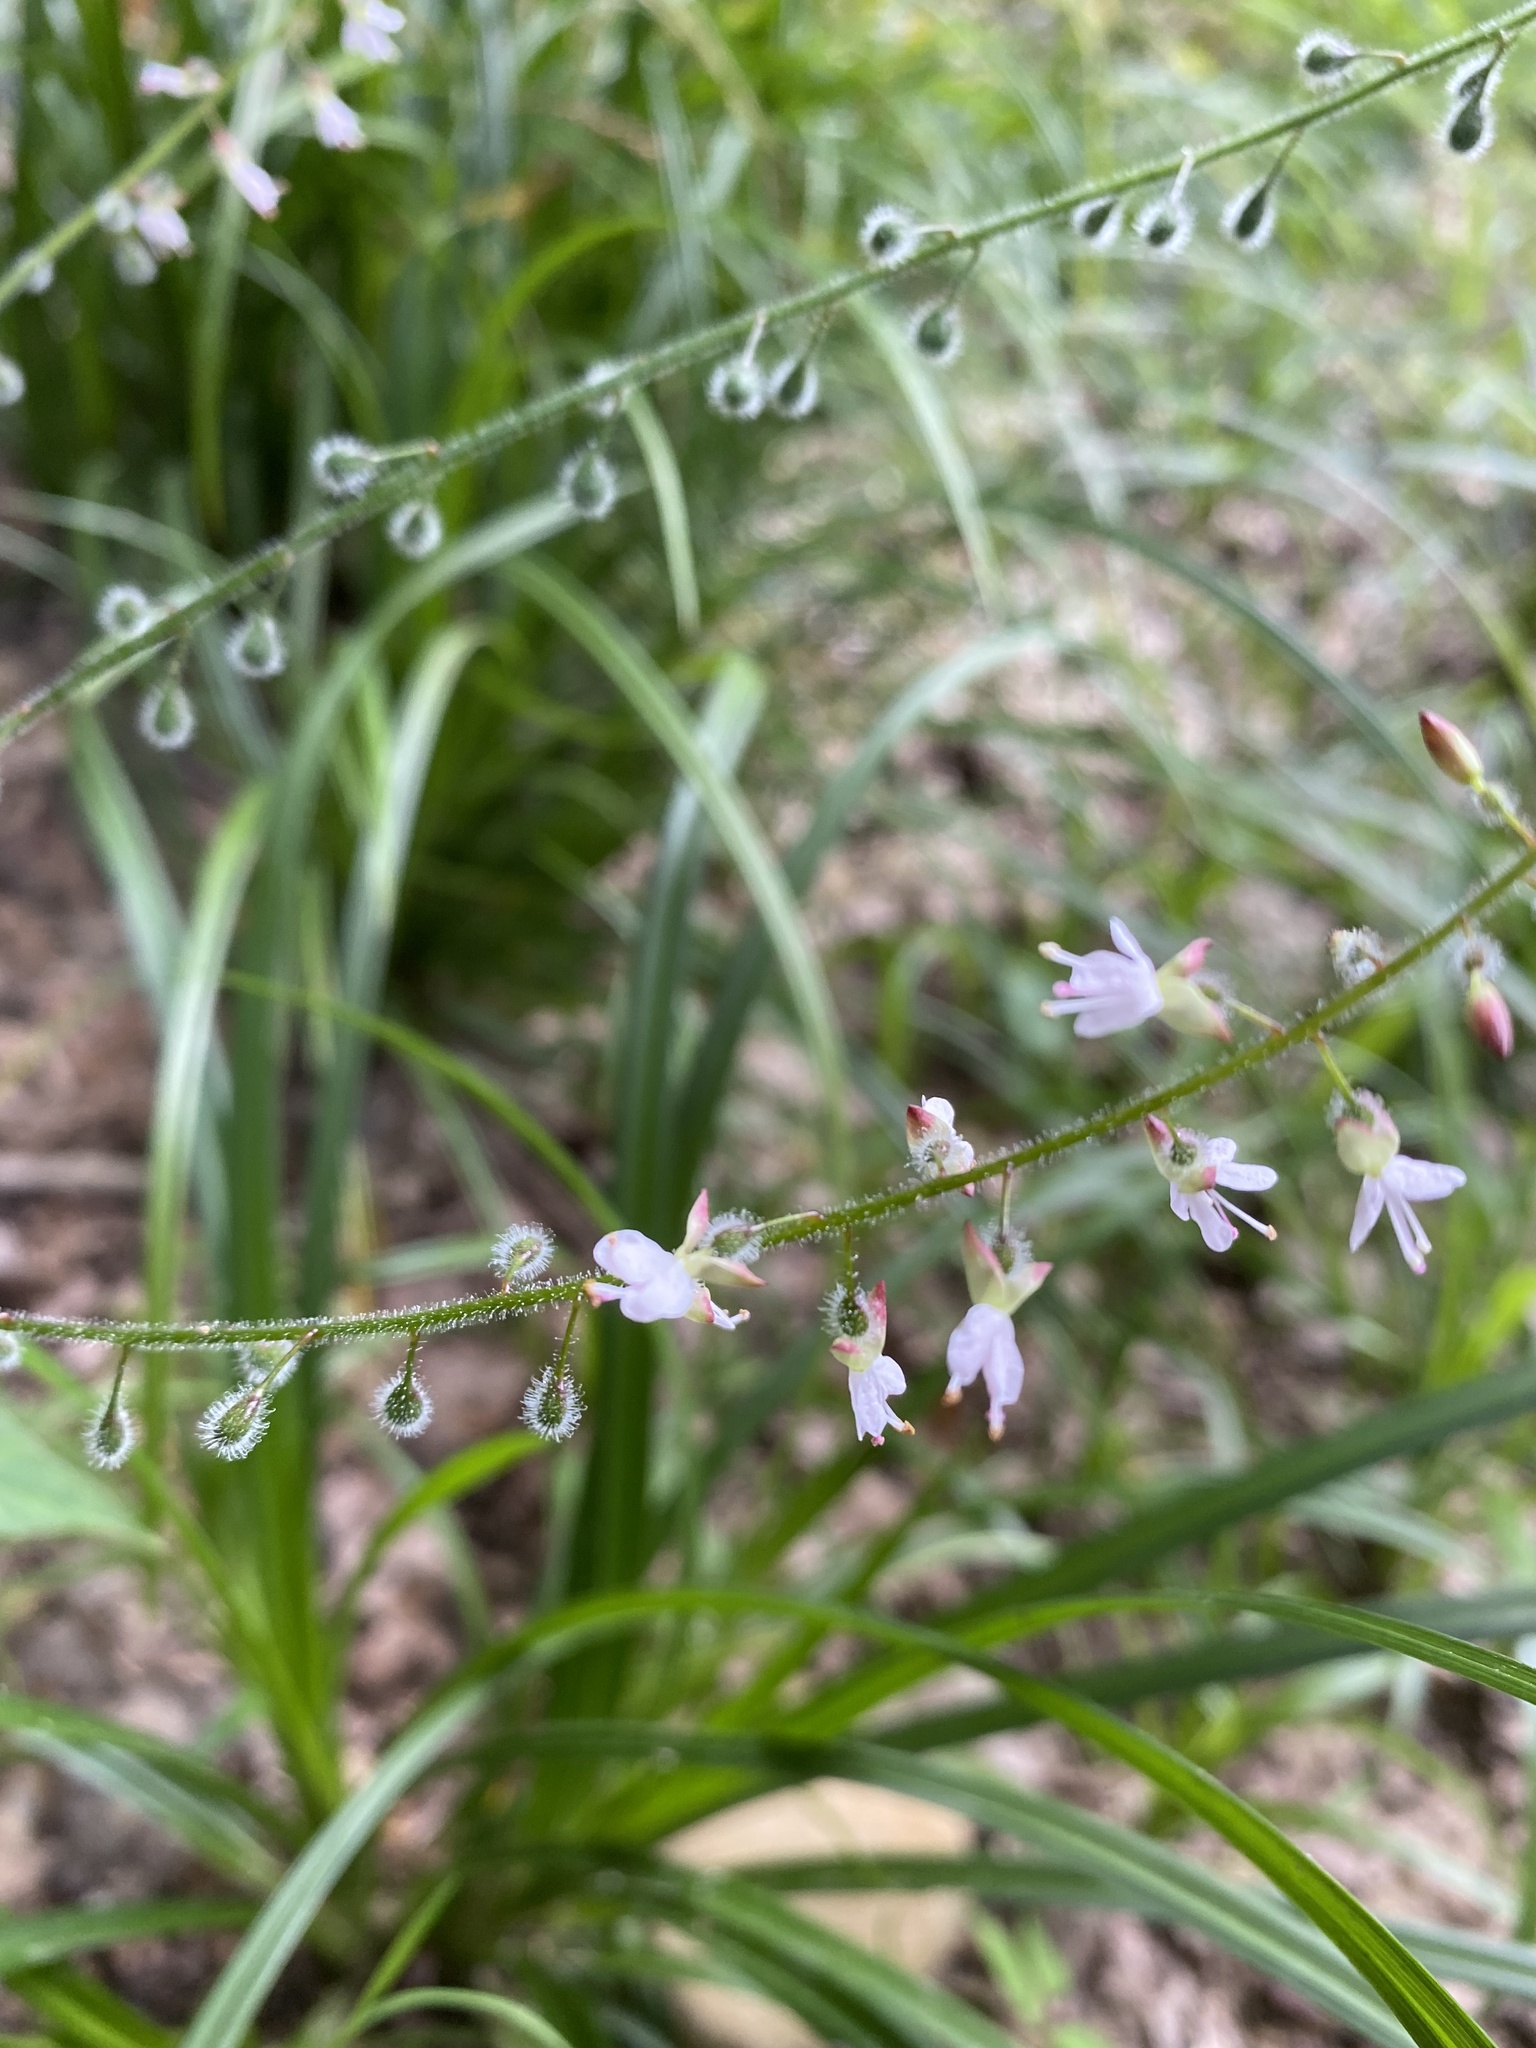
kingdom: Plantae
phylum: Tracheophyta
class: Magnoliopsida
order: Myrtales
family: Onagraceae
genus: Circaea
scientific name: Circaea lutetiana
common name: Enchanter's-nightshade
